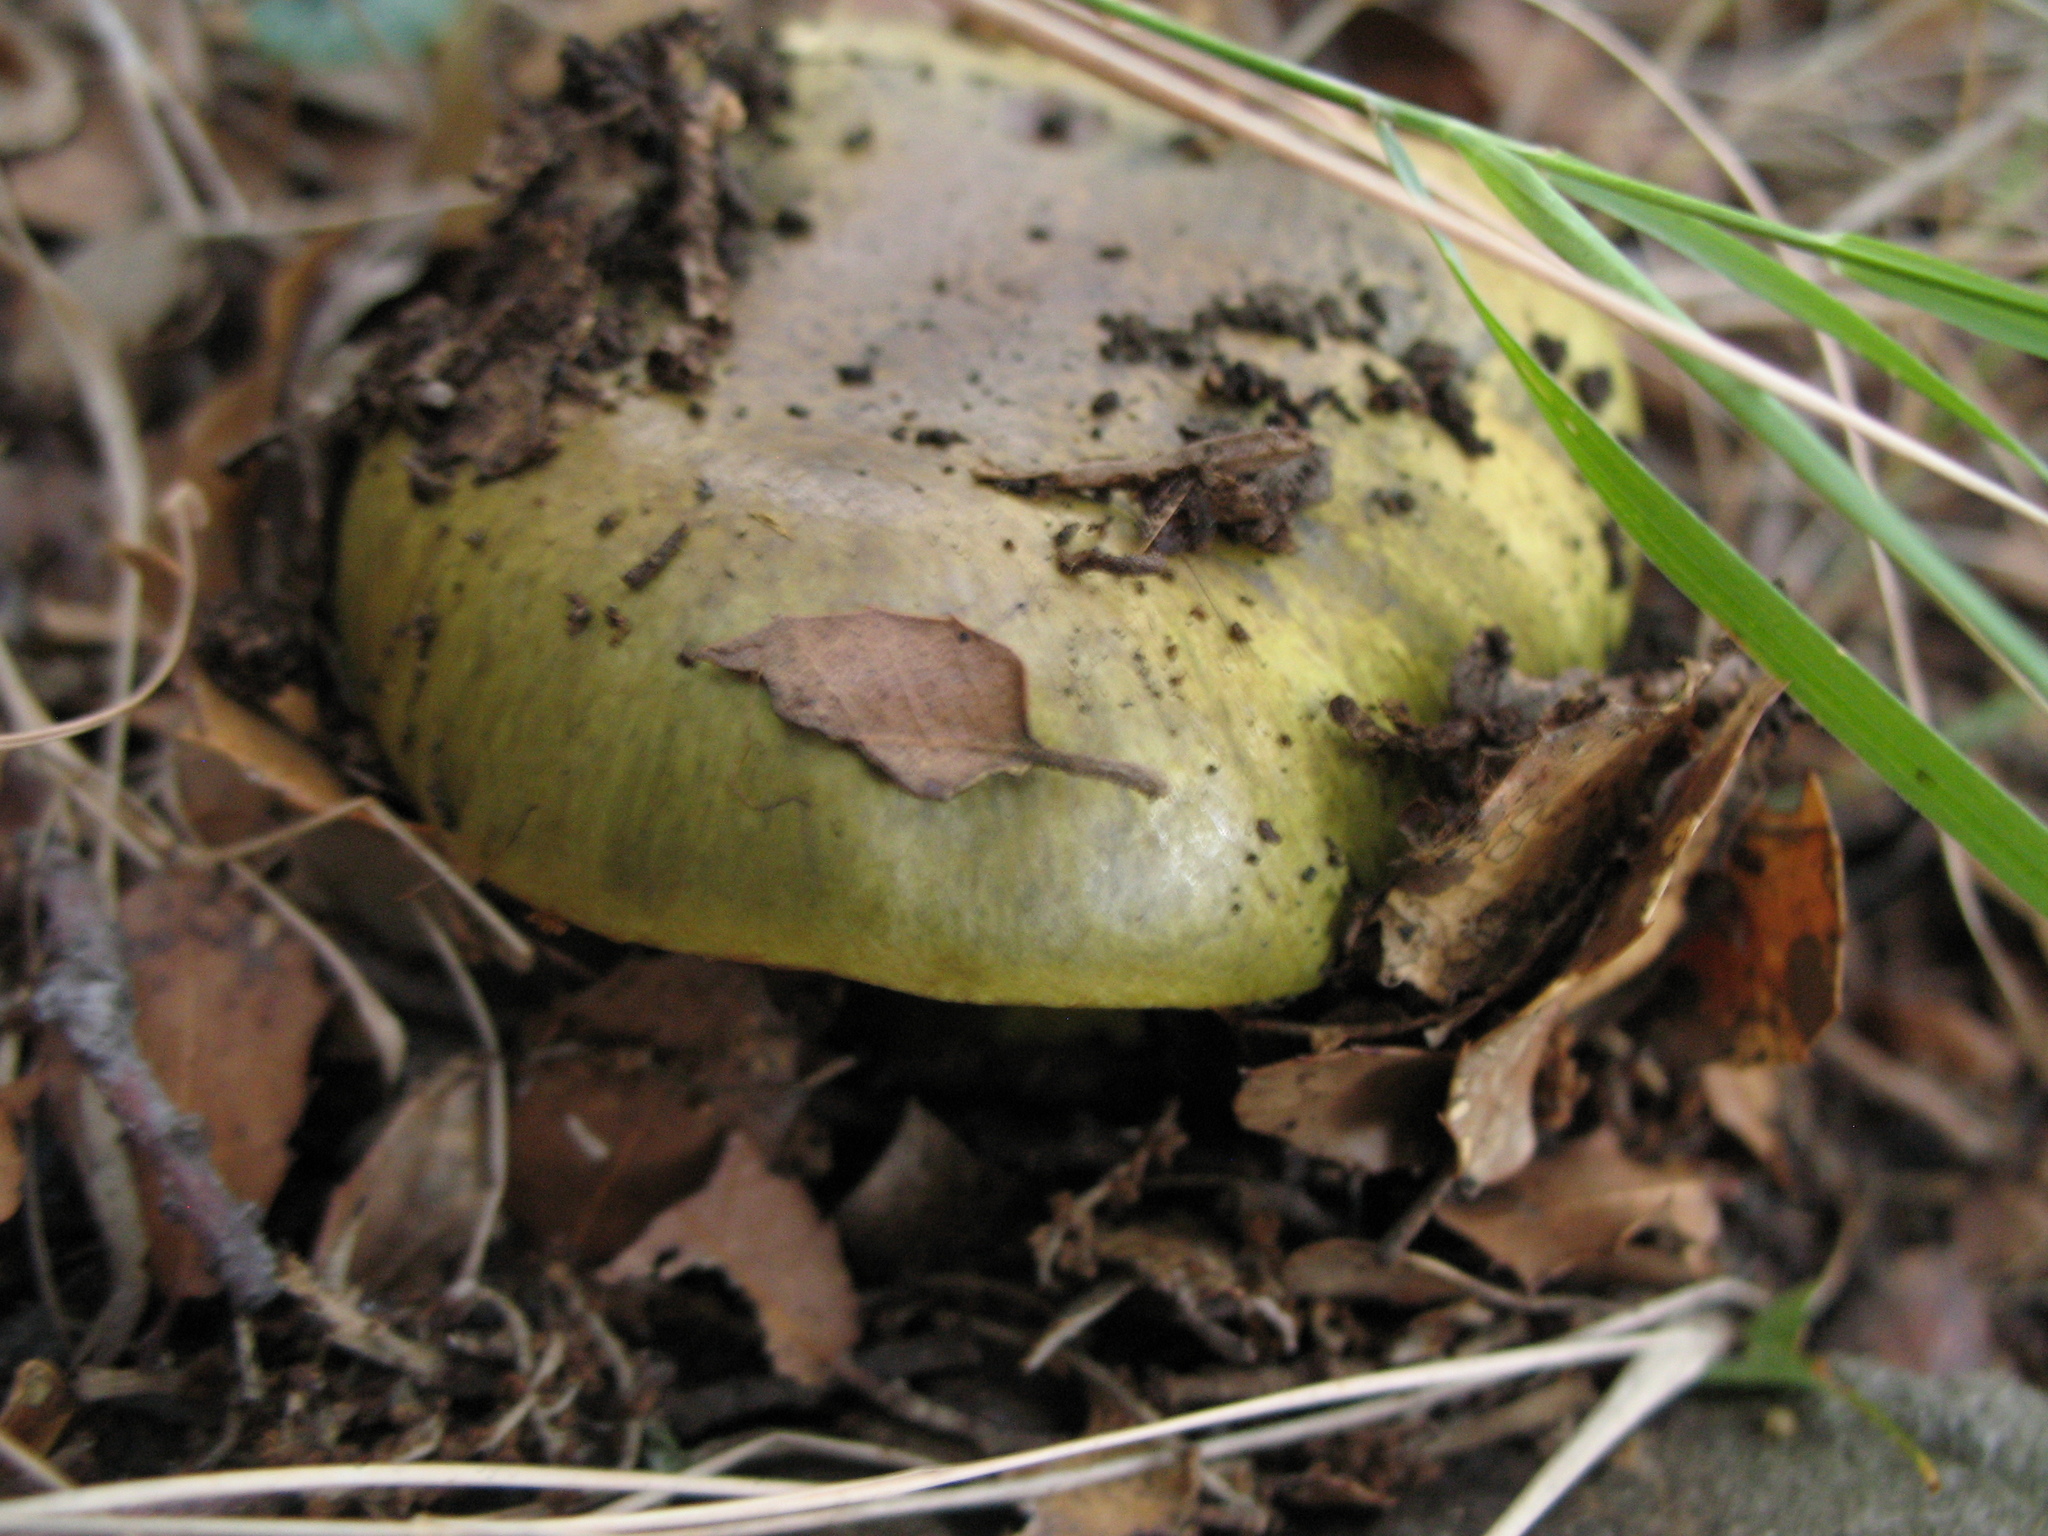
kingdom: Fungi
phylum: Basidiomycota
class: Agaricomycetes
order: Agaricales
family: Psathyrellaceae
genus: Coprinopsis
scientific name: Coprinopsis picacea
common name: Magpie inkcap
